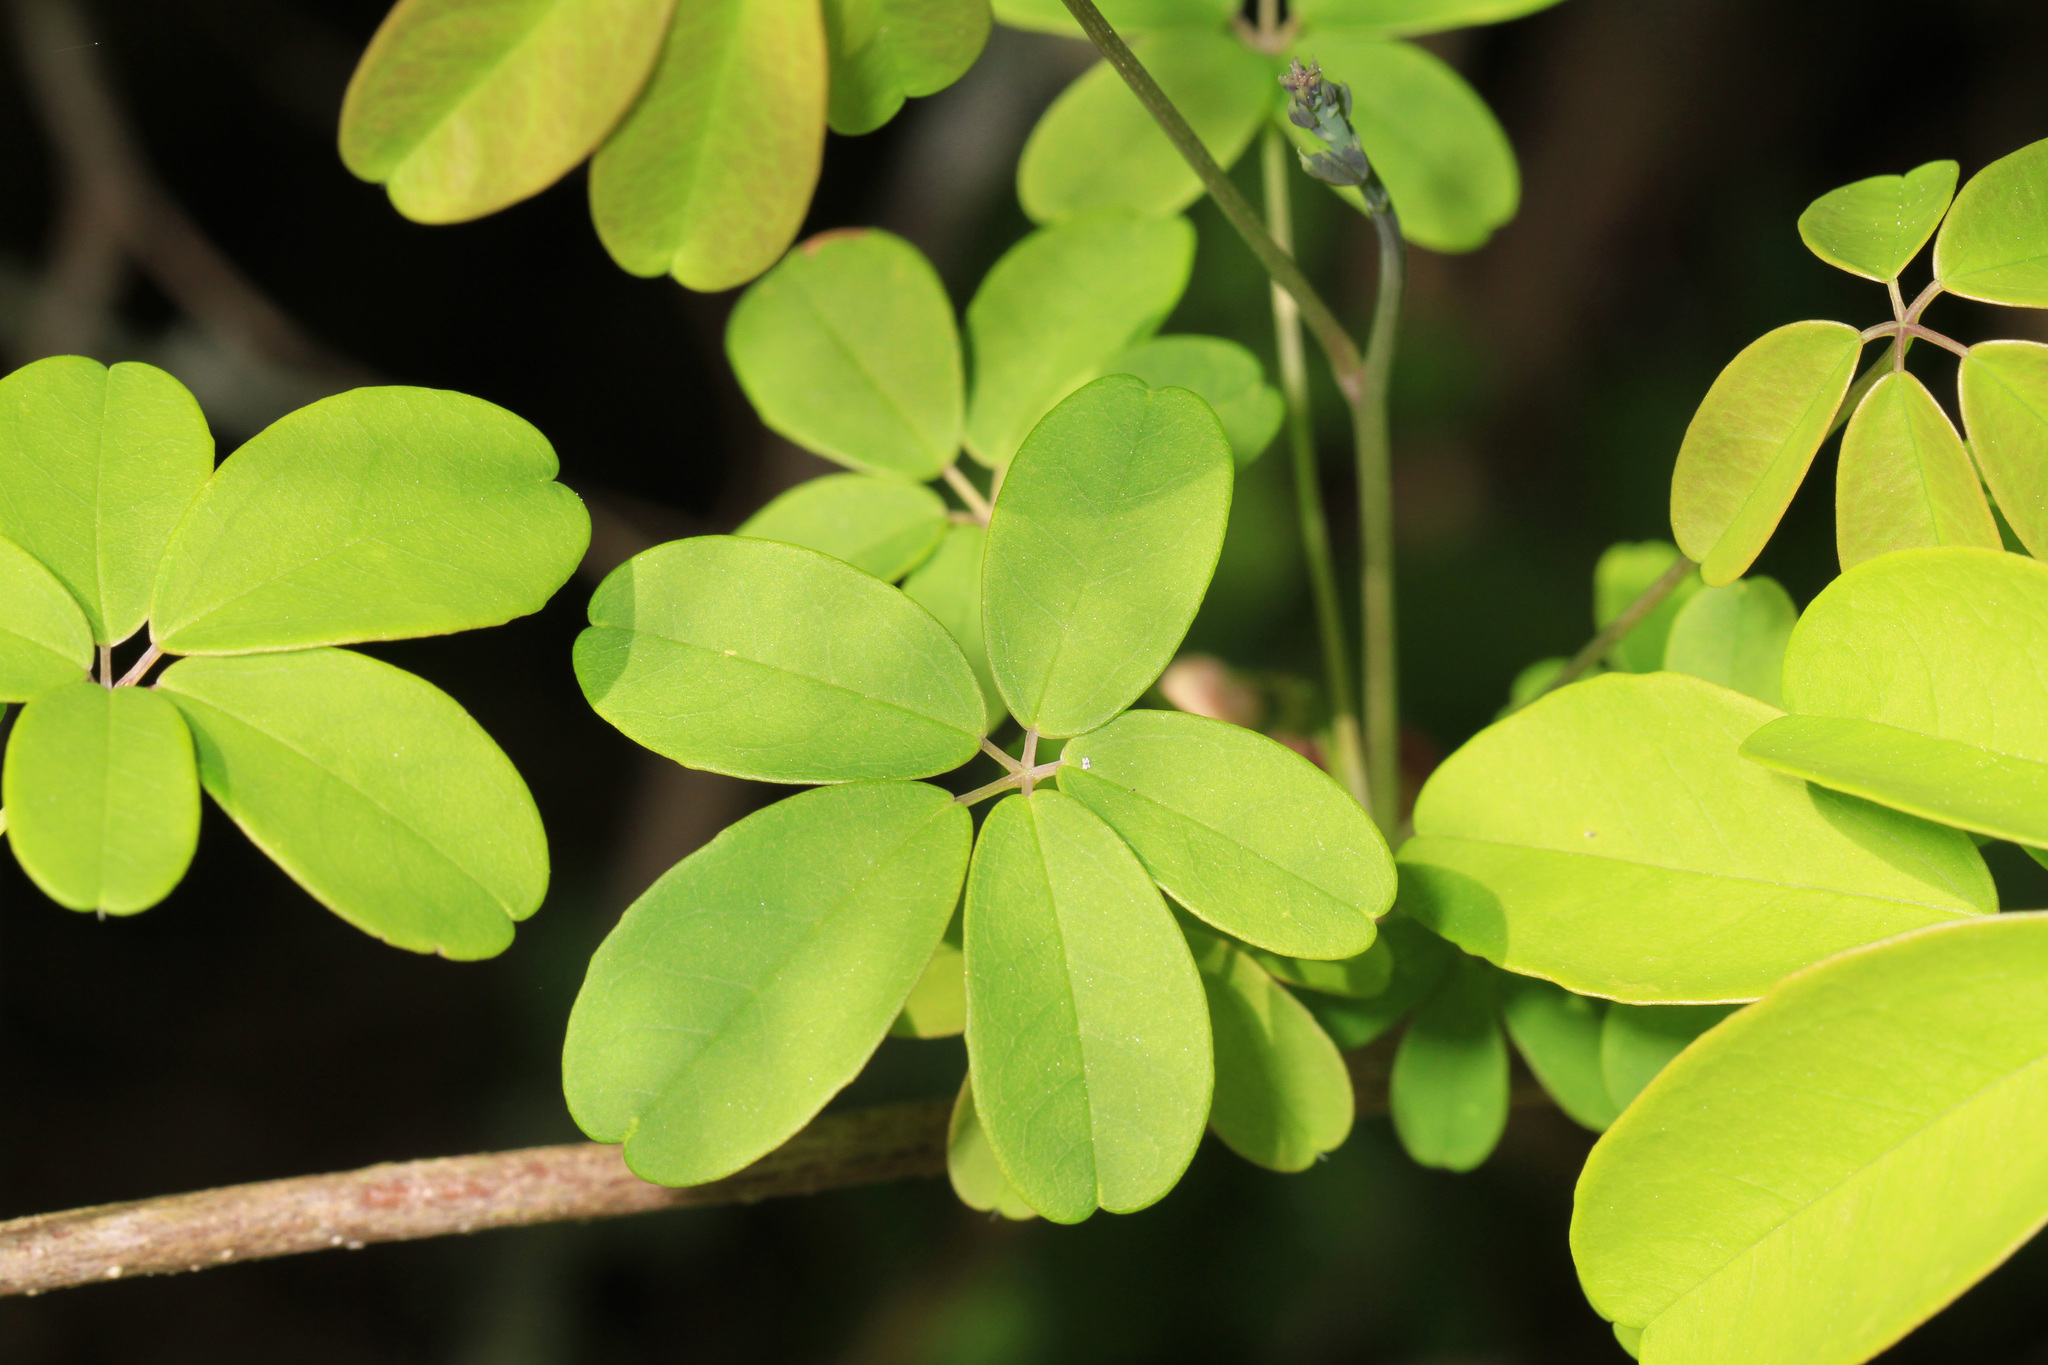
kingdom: Plantae
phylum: Tracheophyta
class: Magnoliopsida
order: Ranunculales
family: Lardizabalaceae
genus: Akebia
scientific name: Akebia quinata
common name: Five-leaf akebia
